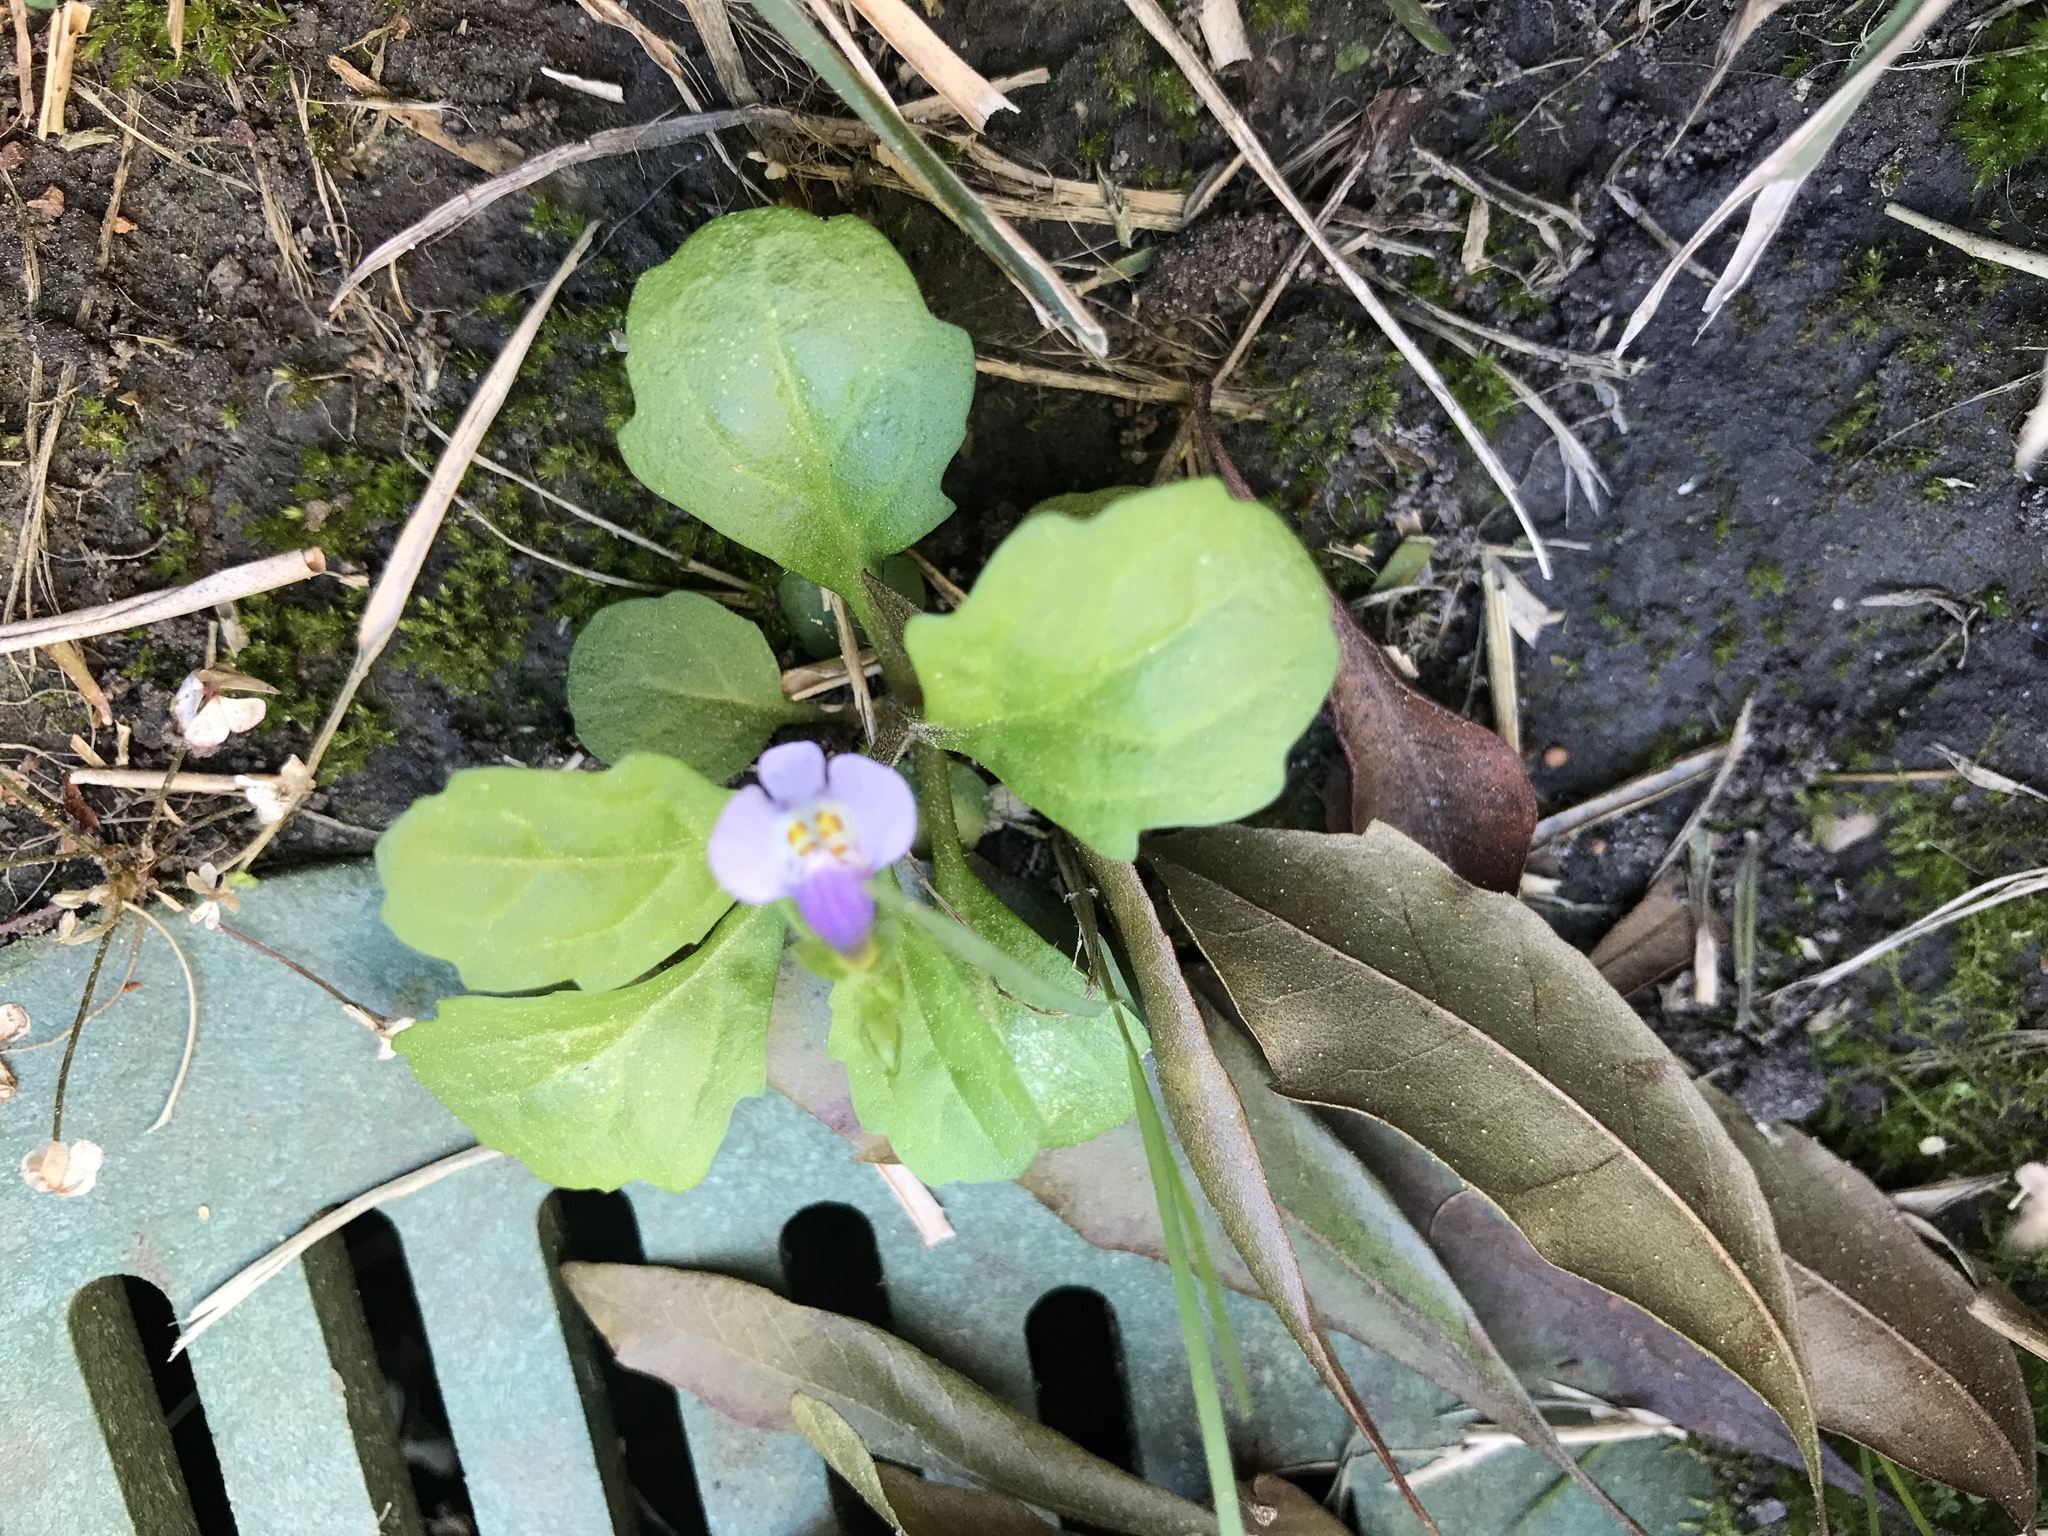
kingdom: Plantae
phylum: Tracheophyta
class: Magnoliopsida
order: Lamiales
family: Mazaceae
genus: Mazus
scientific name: Mazus pumilus
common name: Japanese mazus
